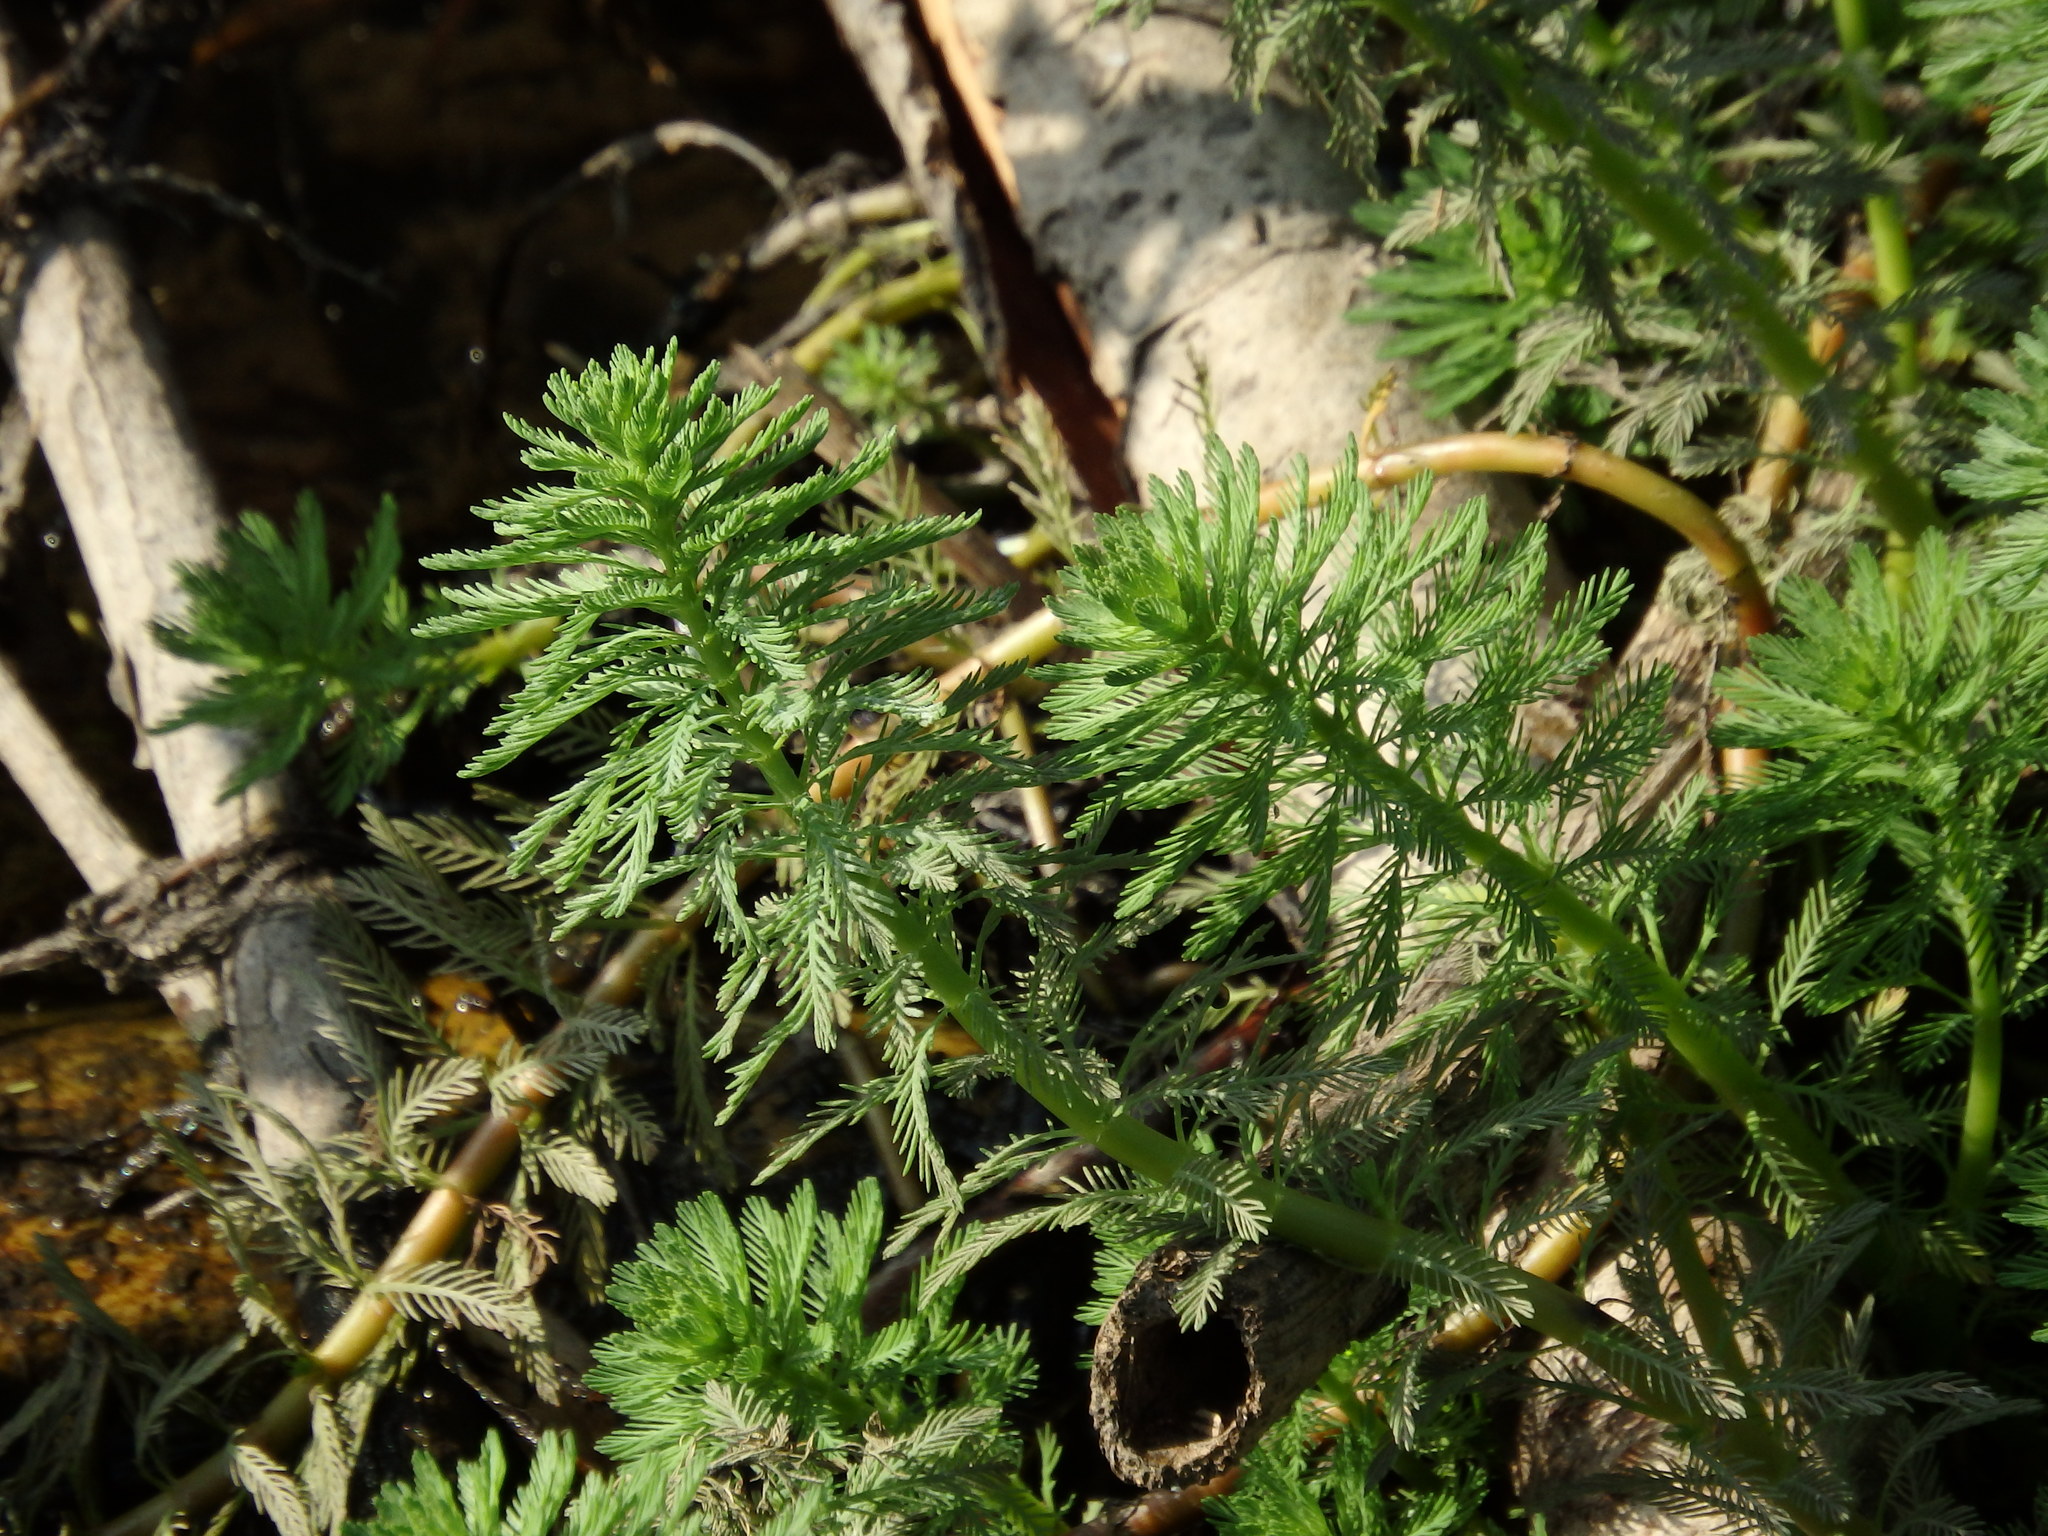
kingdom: Plantae
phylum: Tracheophyta
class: Magnoliopsida
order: Saxifragales
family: Haloragaceae
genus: Myriophyllum
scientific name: Myriophyllum aquaticum
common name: Parrot's feather
